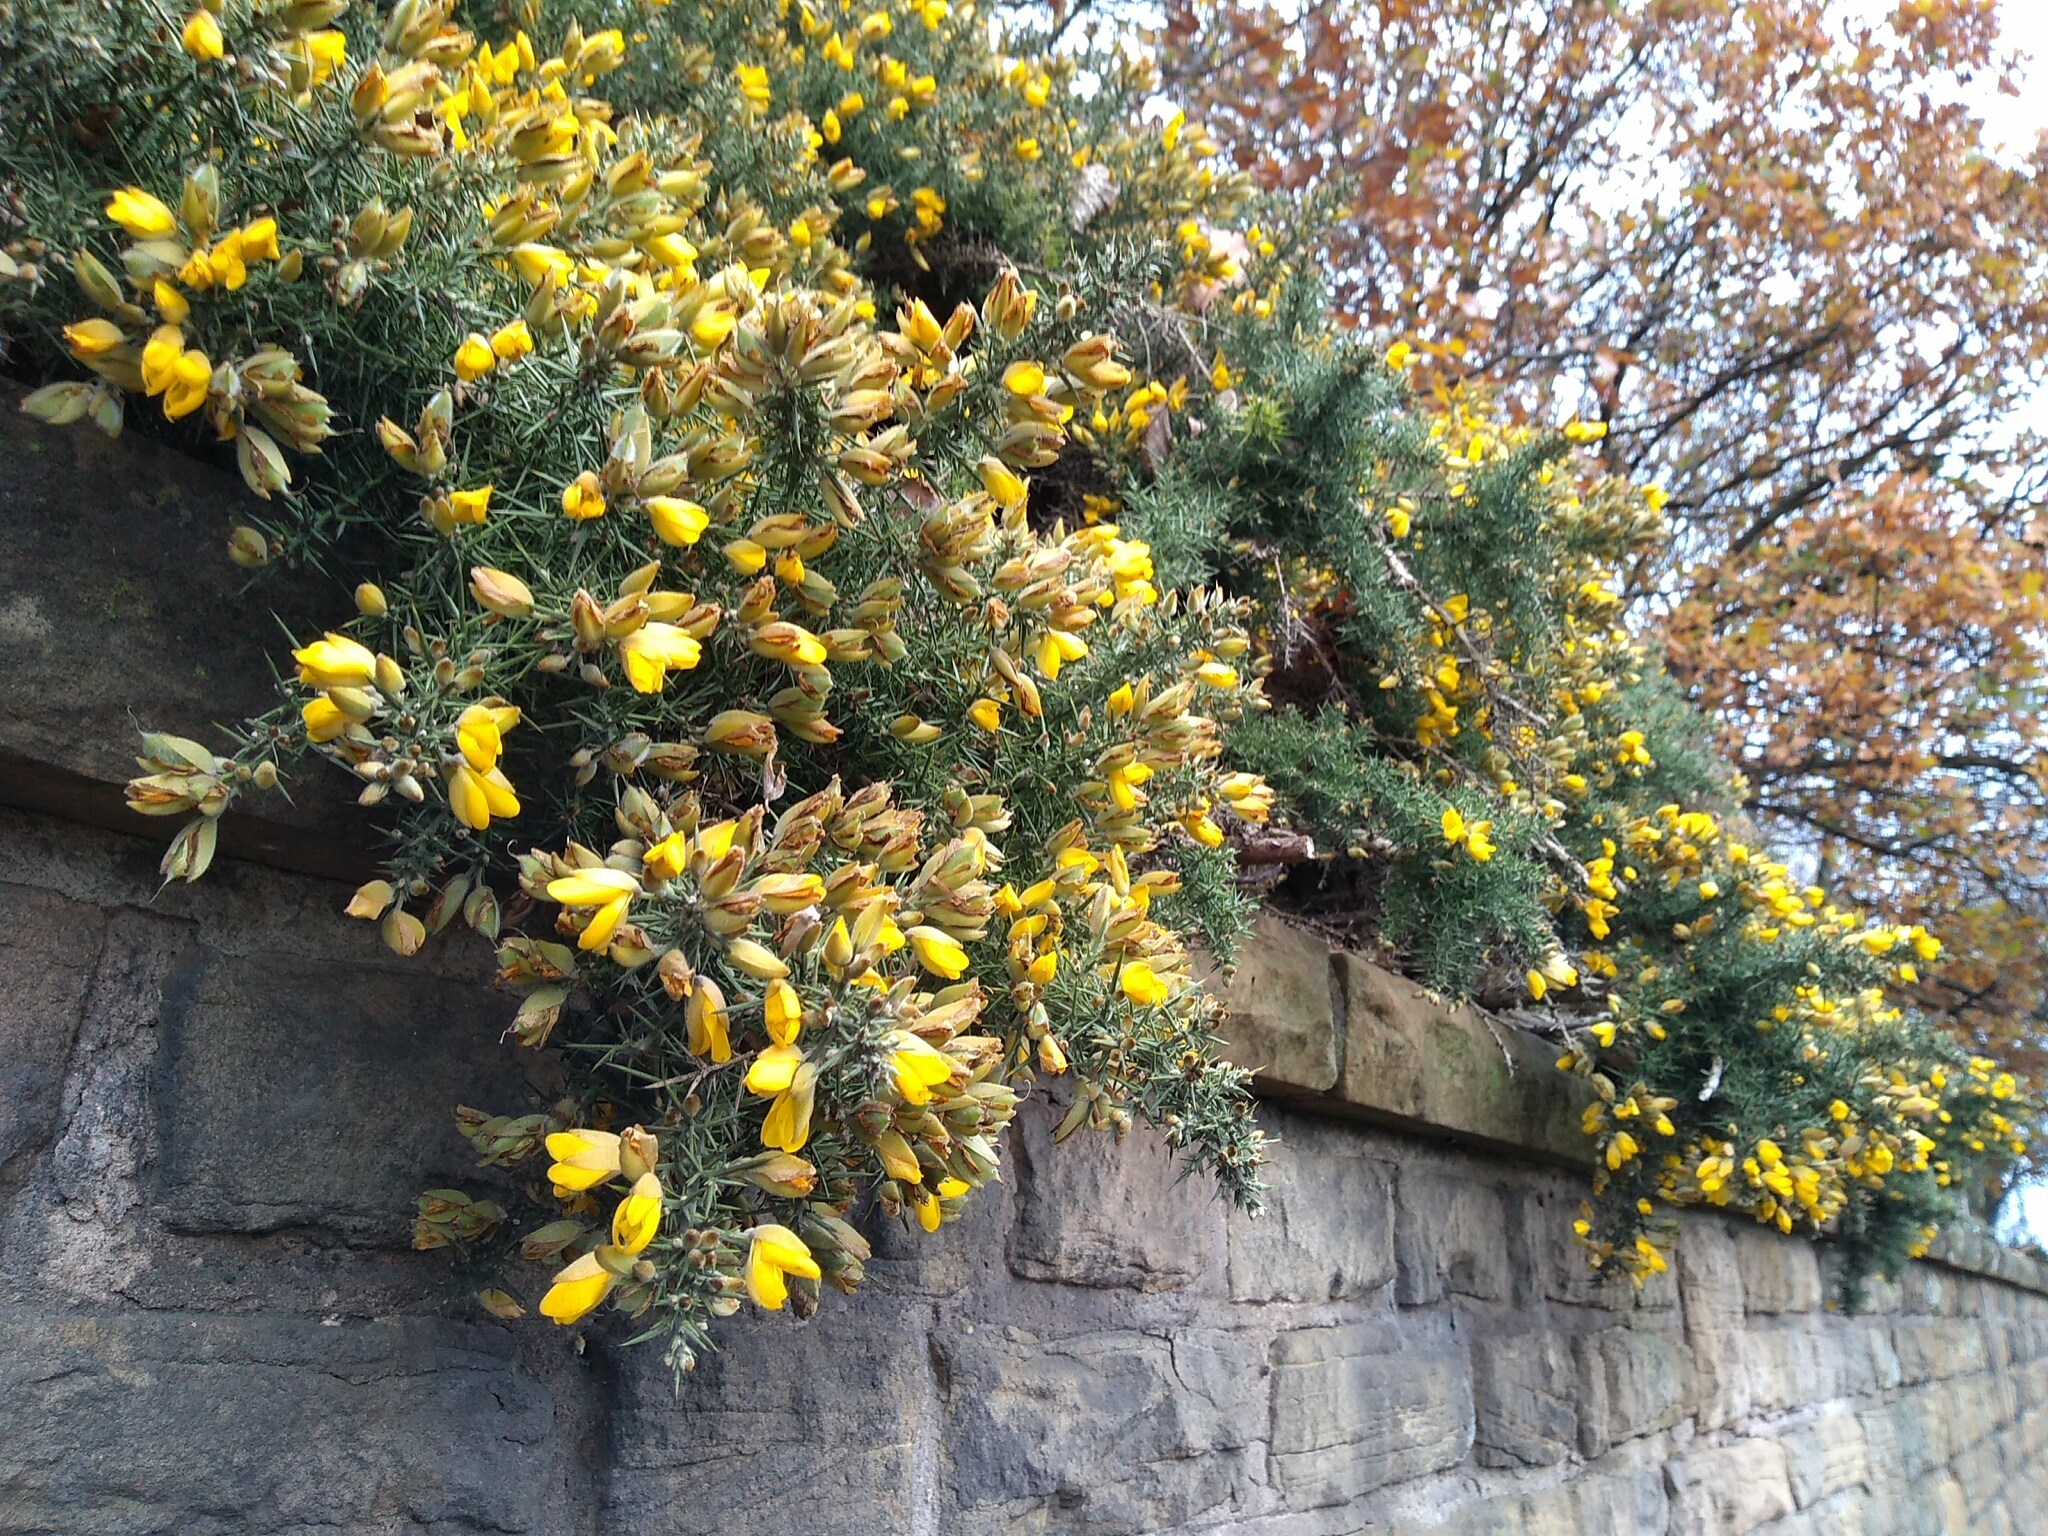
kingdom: Plantae
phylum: Tracheophyta
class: Magnoliopsida
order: Fabales
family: Fabaceae
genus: Ulex
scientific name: Ulex europaeus
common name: Common gorse
